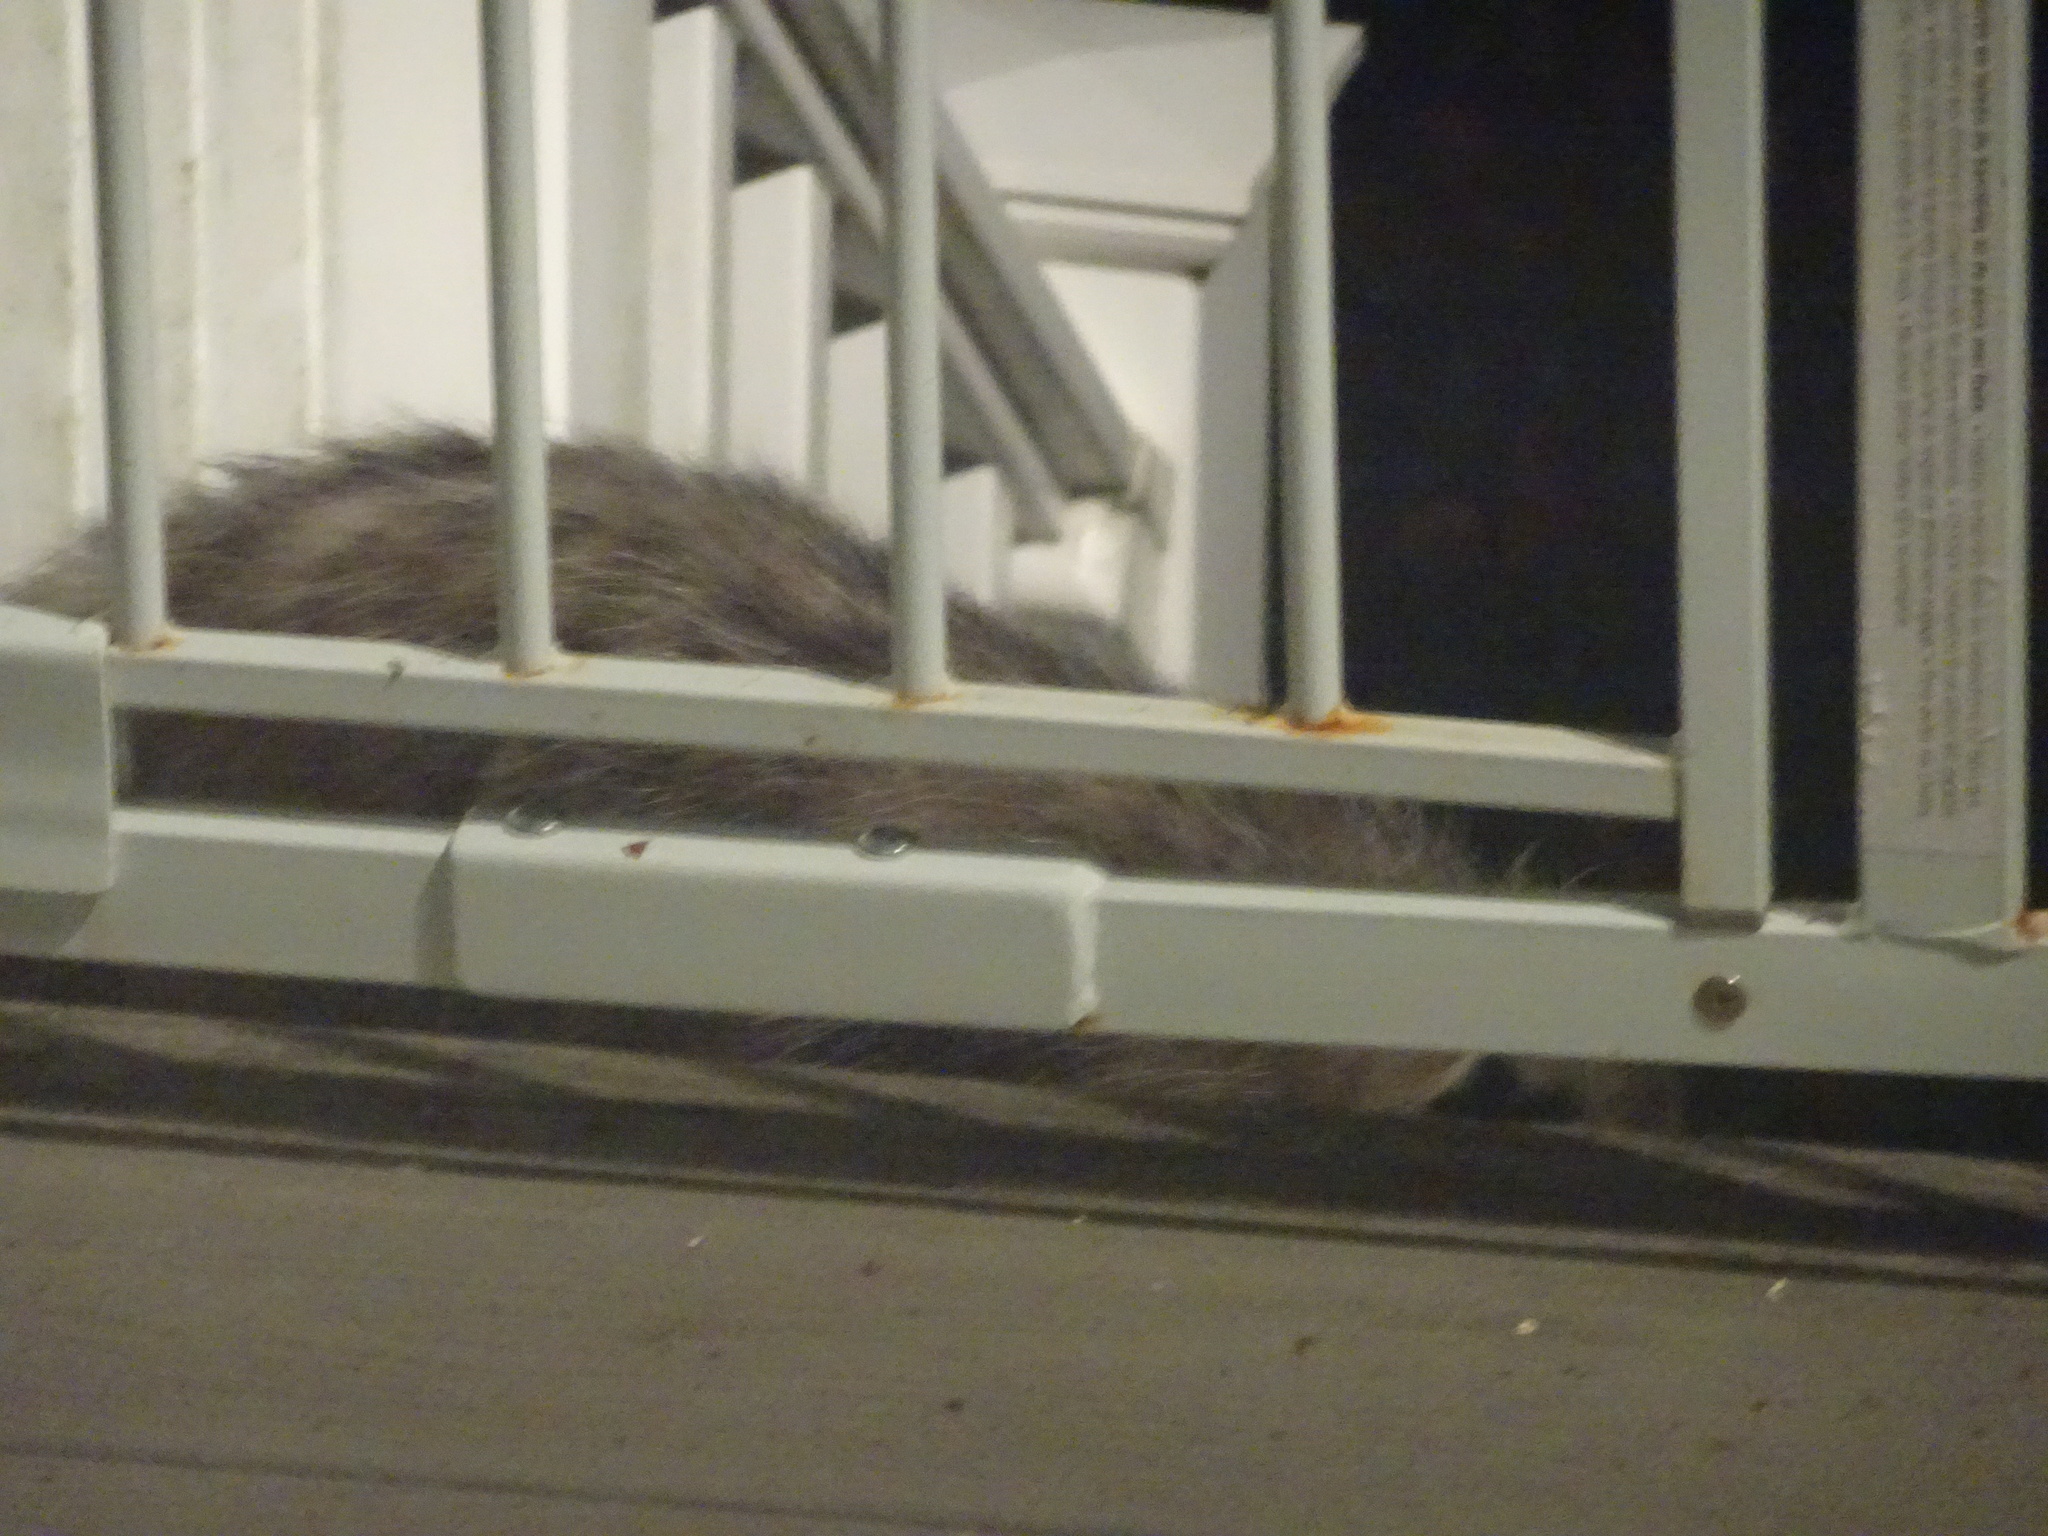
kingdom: Animalia
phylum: Chordata
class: Mammalia
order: Didelphimorphia
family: Didelphidae
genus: Didelphis
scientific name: Didelphis virginiana
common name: Virginia opossum
